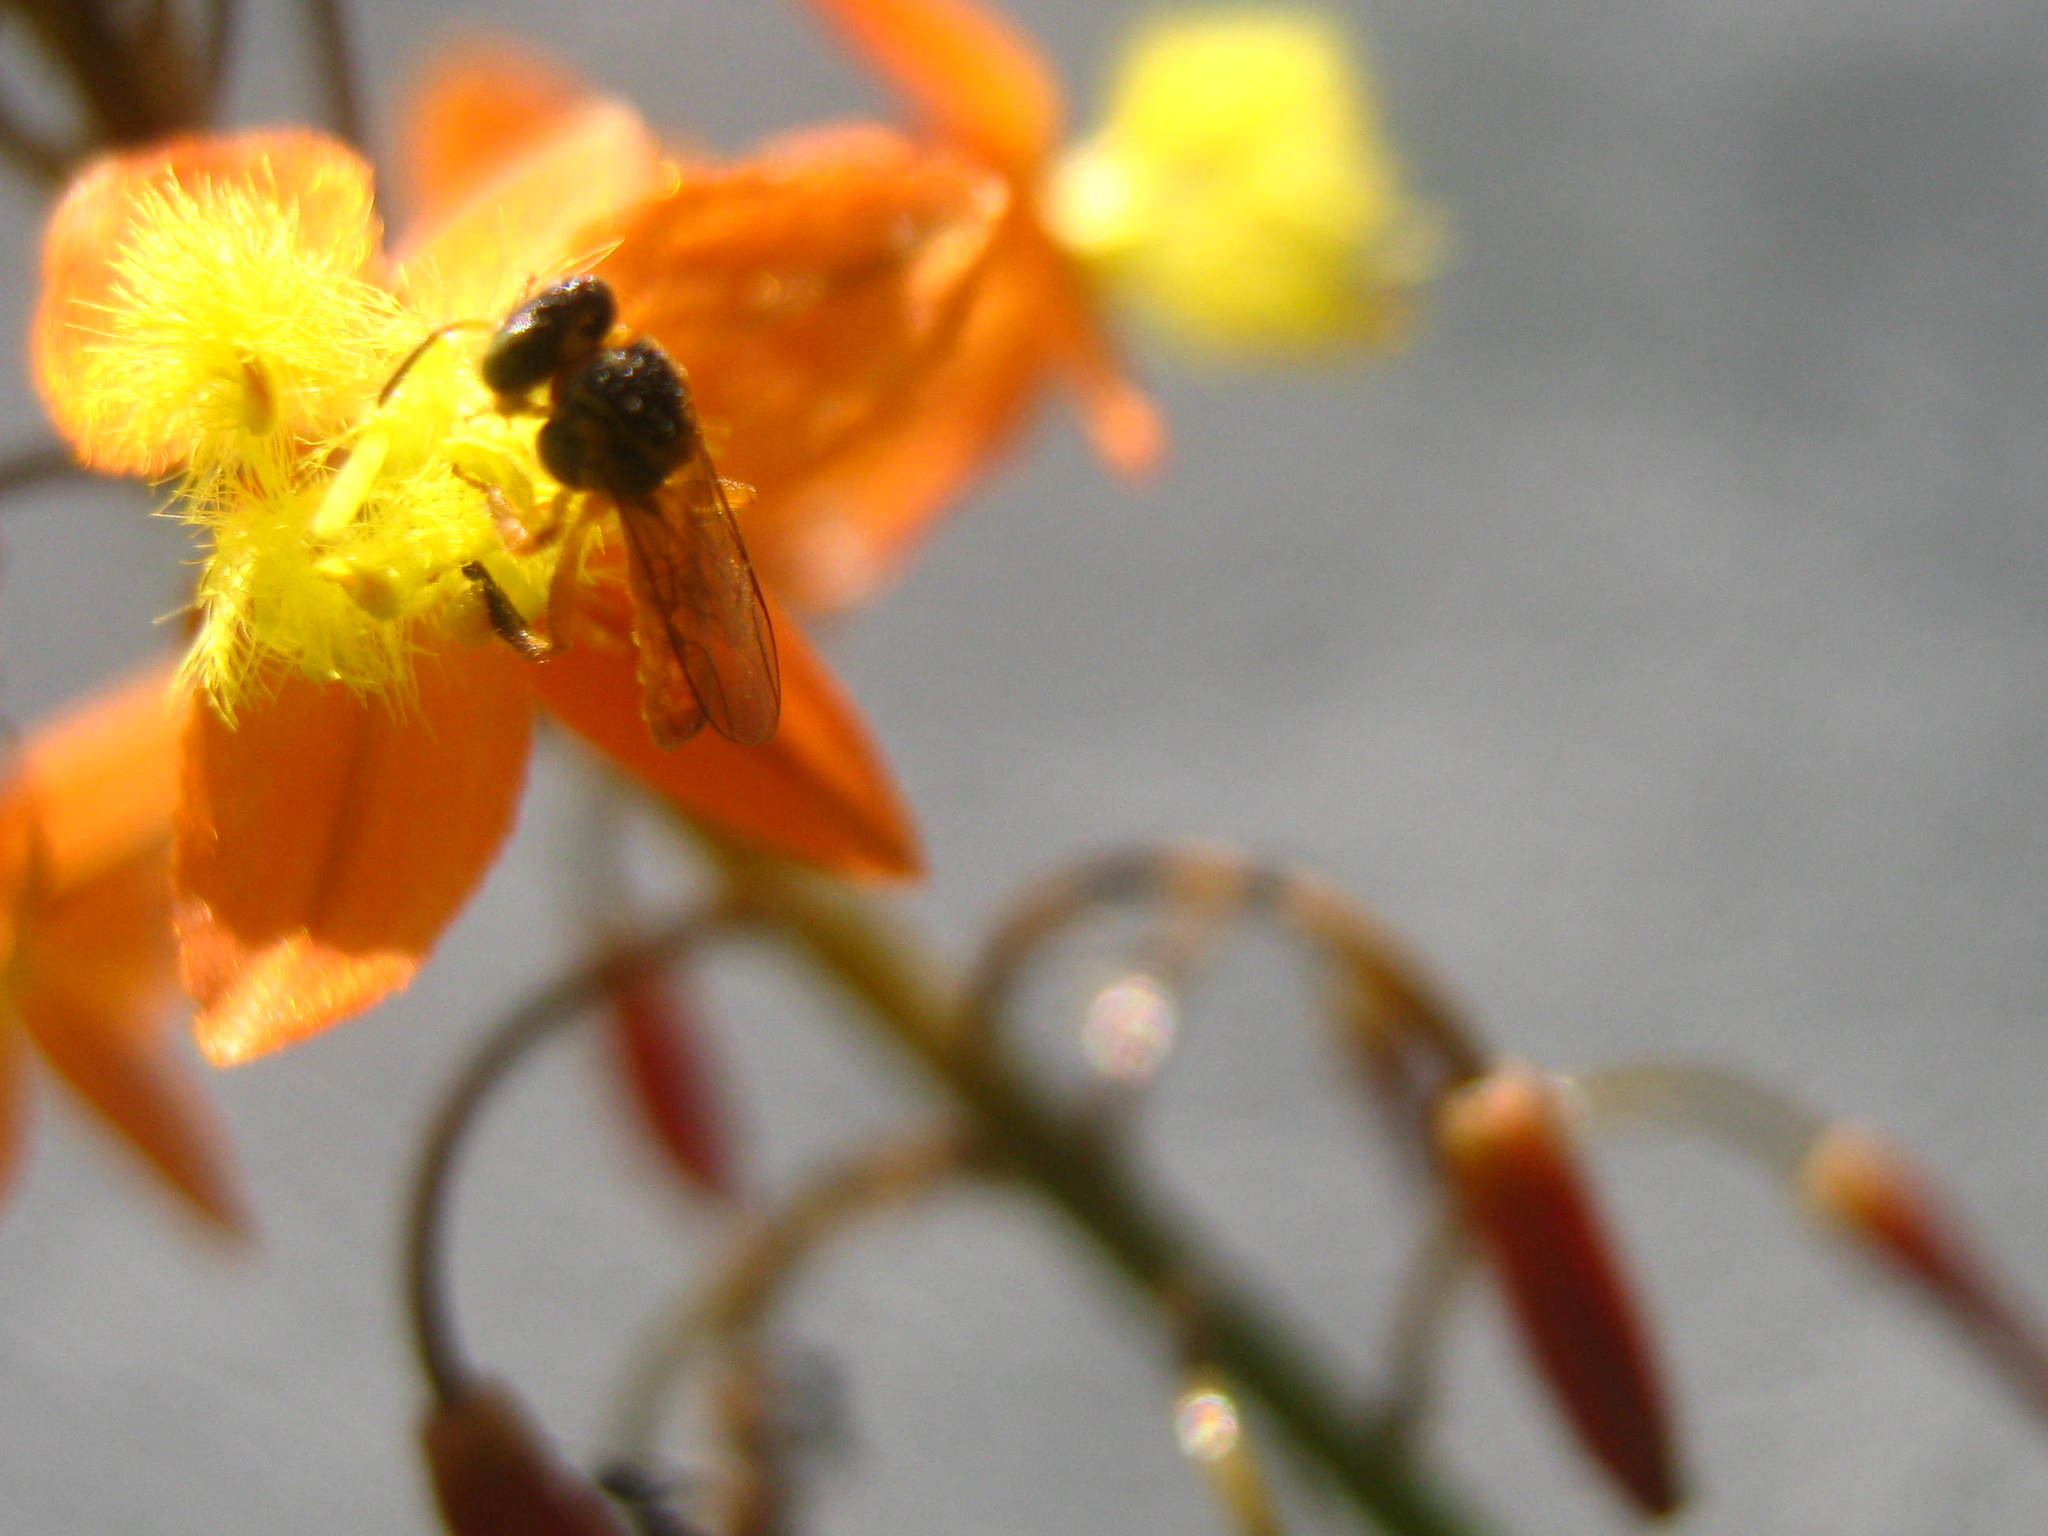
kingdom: Animalia
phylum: Arthropoda
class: Insecta
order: Hymenoptera
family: Apidae
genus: Tetragonisca
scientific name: Tetragonisca angustula
